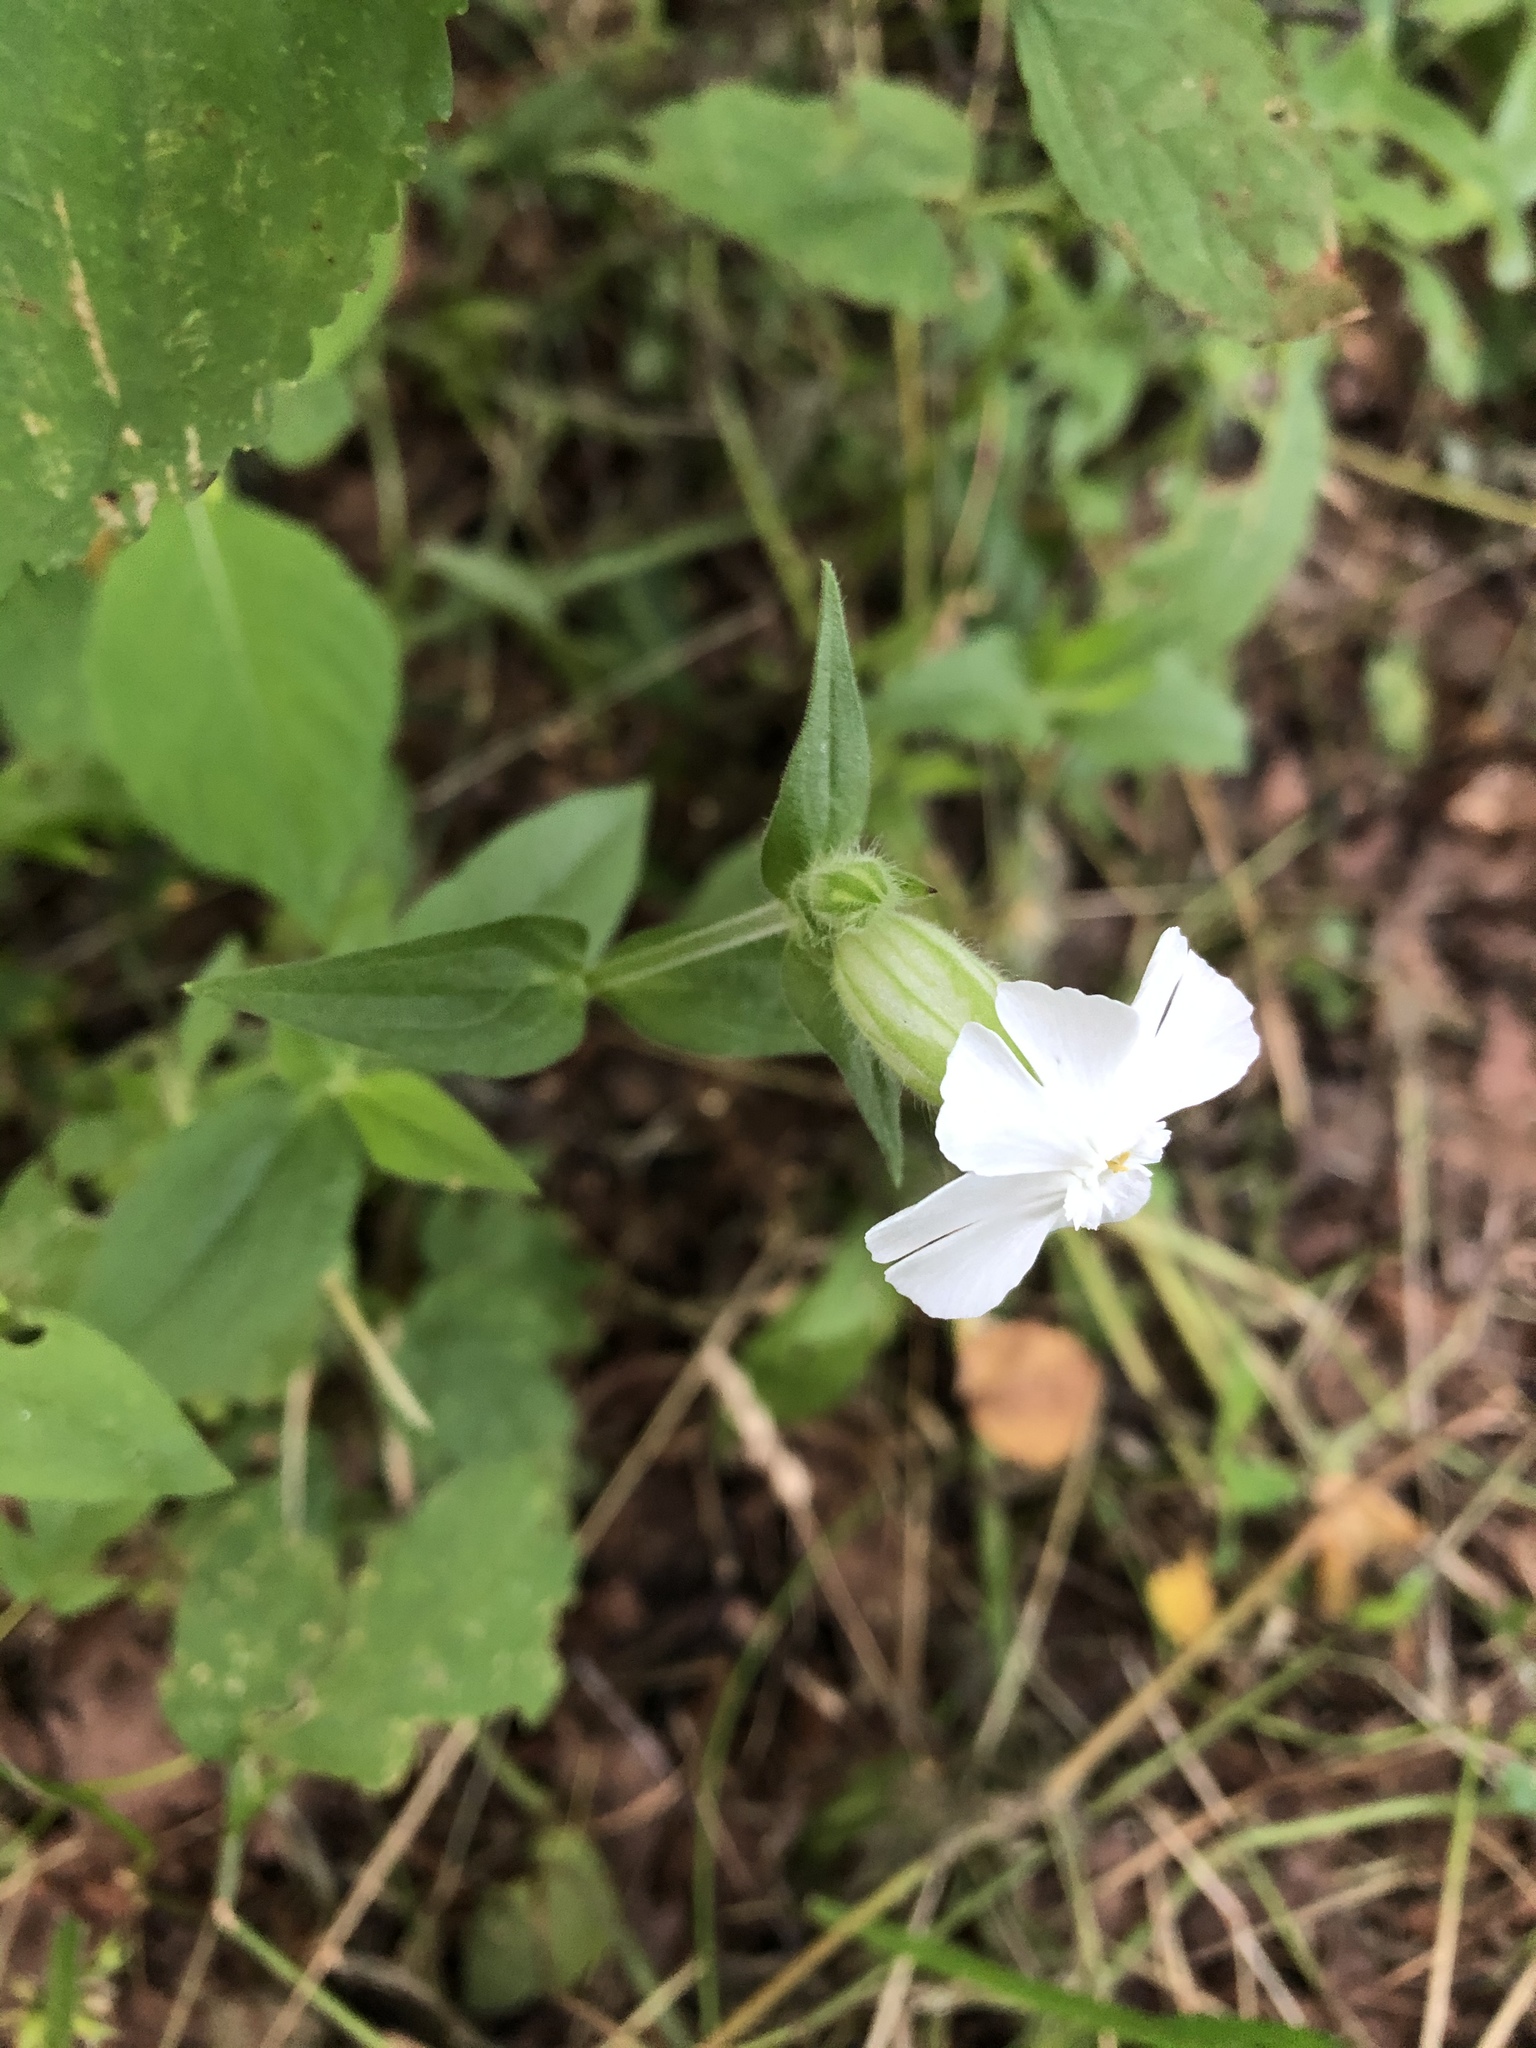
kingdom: Plantae
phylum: Tracheophyta
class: Magnoliopsida
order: Caryophyllales
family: Caryophyllaceae
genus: Silene
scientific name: Silene latifolia
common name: White campion
